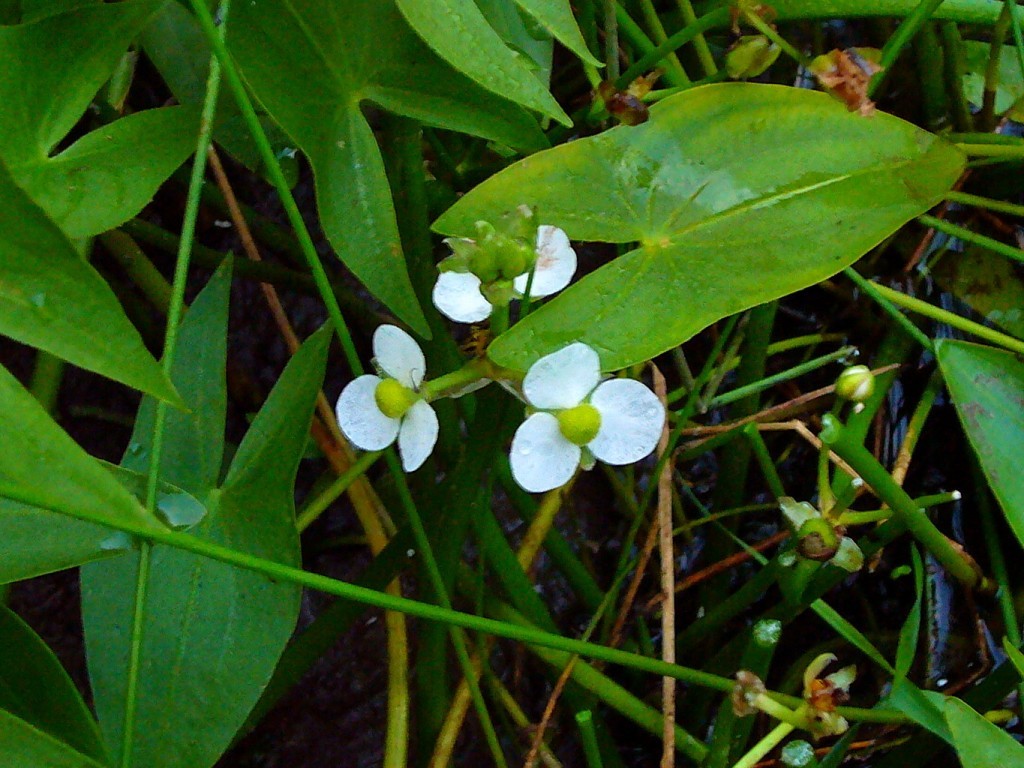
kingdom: Plantae
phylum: Tracheophyta
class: Liliopsida
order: Alismatales
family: Alismataceae
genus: Sagittaria
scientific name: Sagittaria cuneata
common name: Northern arrowhead
